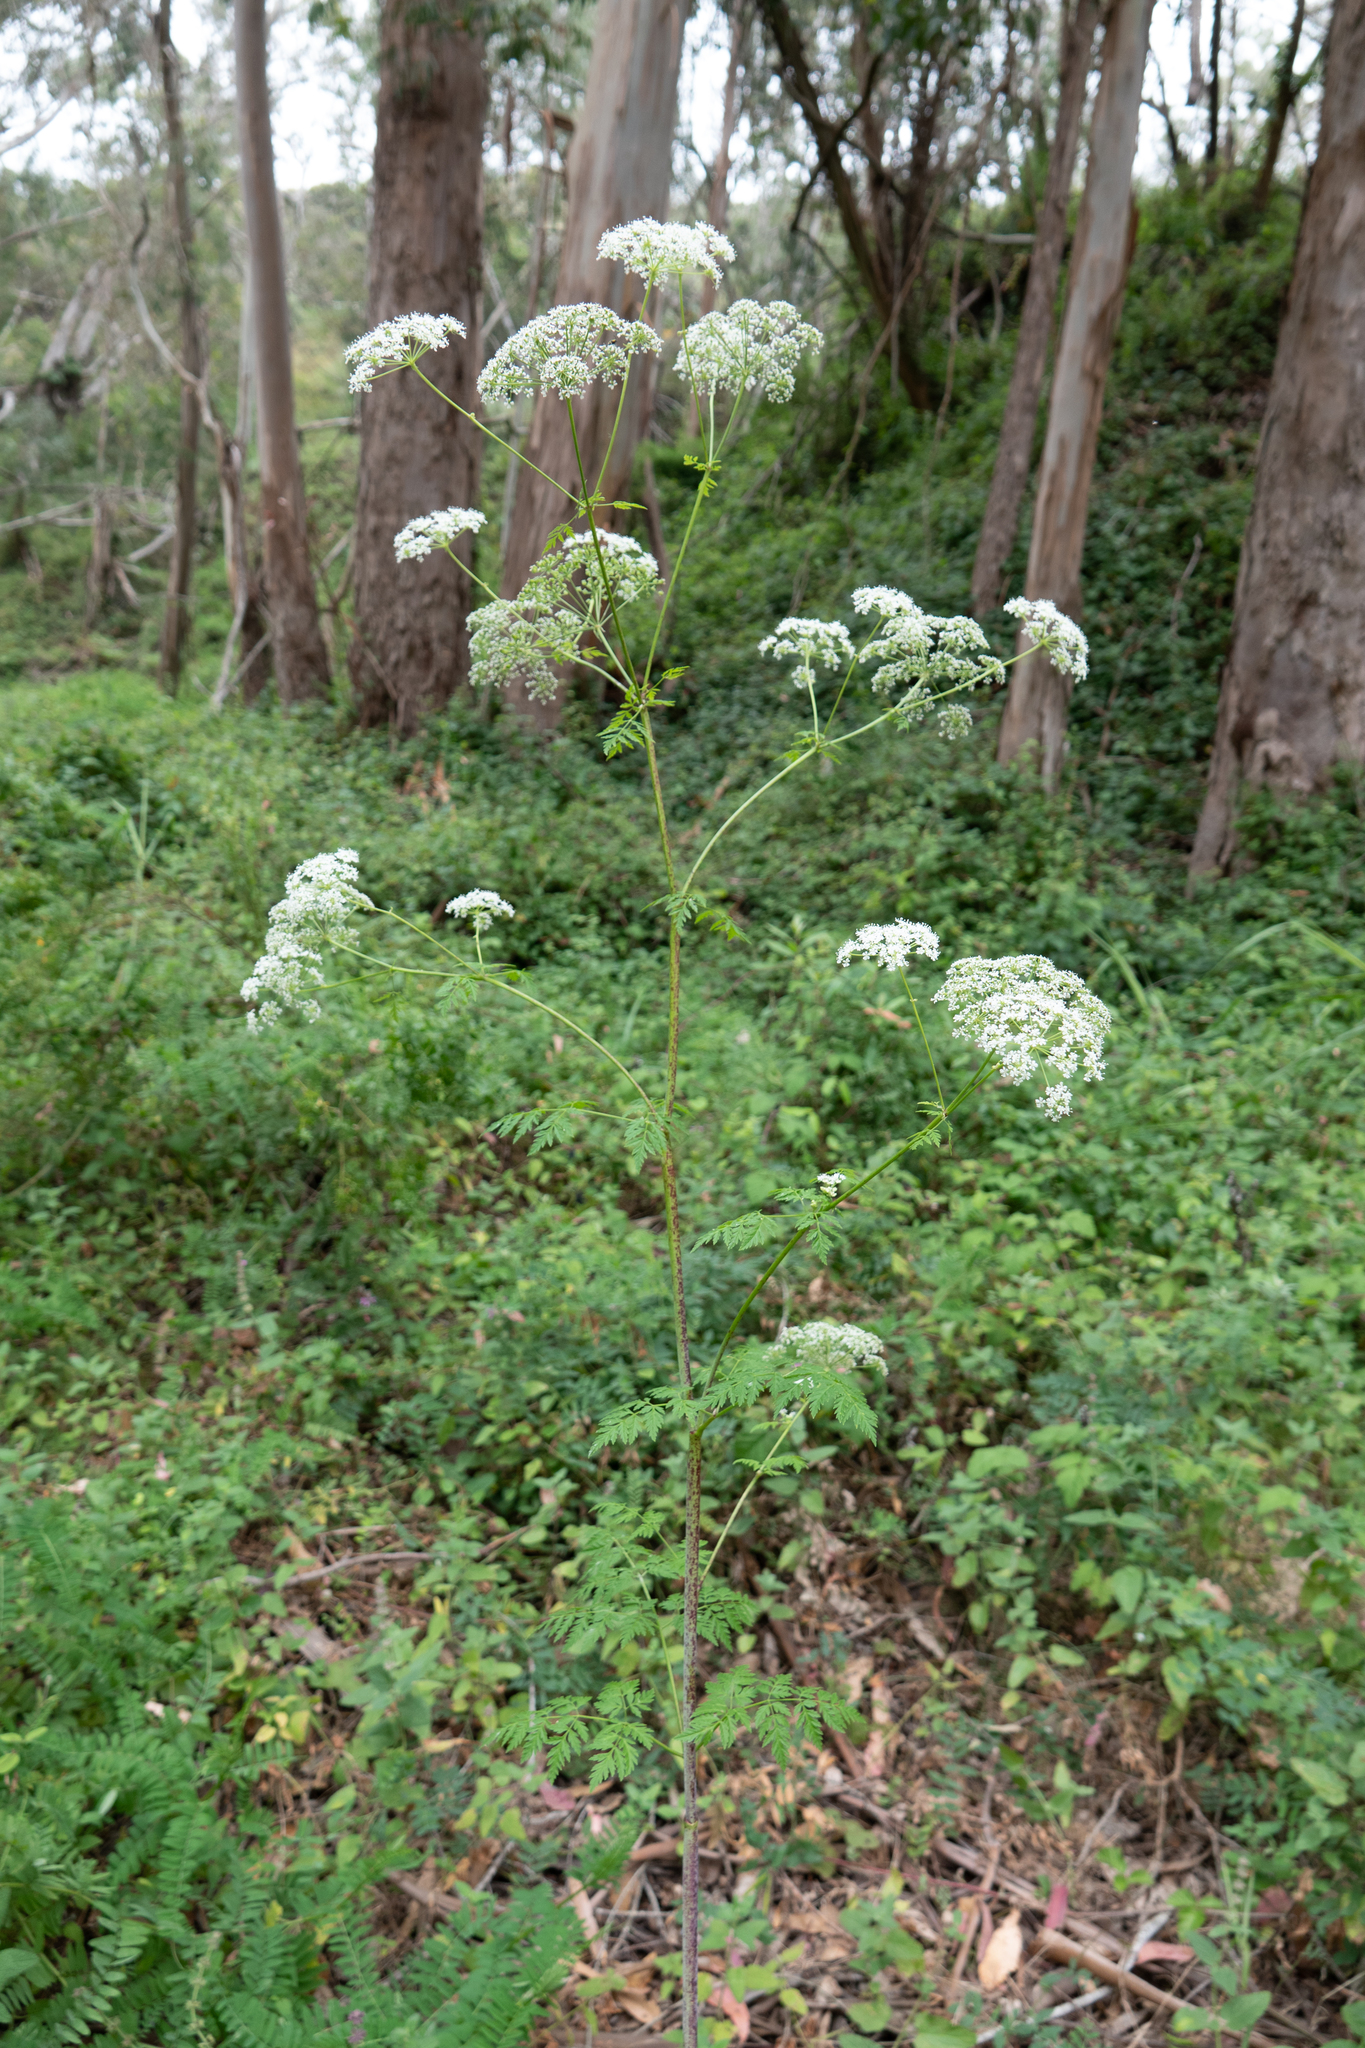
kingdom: Plantae
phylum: Tracheophyta
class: Magnoliopsida
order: Apiales
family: Apiaceae
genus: Conium
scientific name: Conium maculatum
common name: Hemlock
